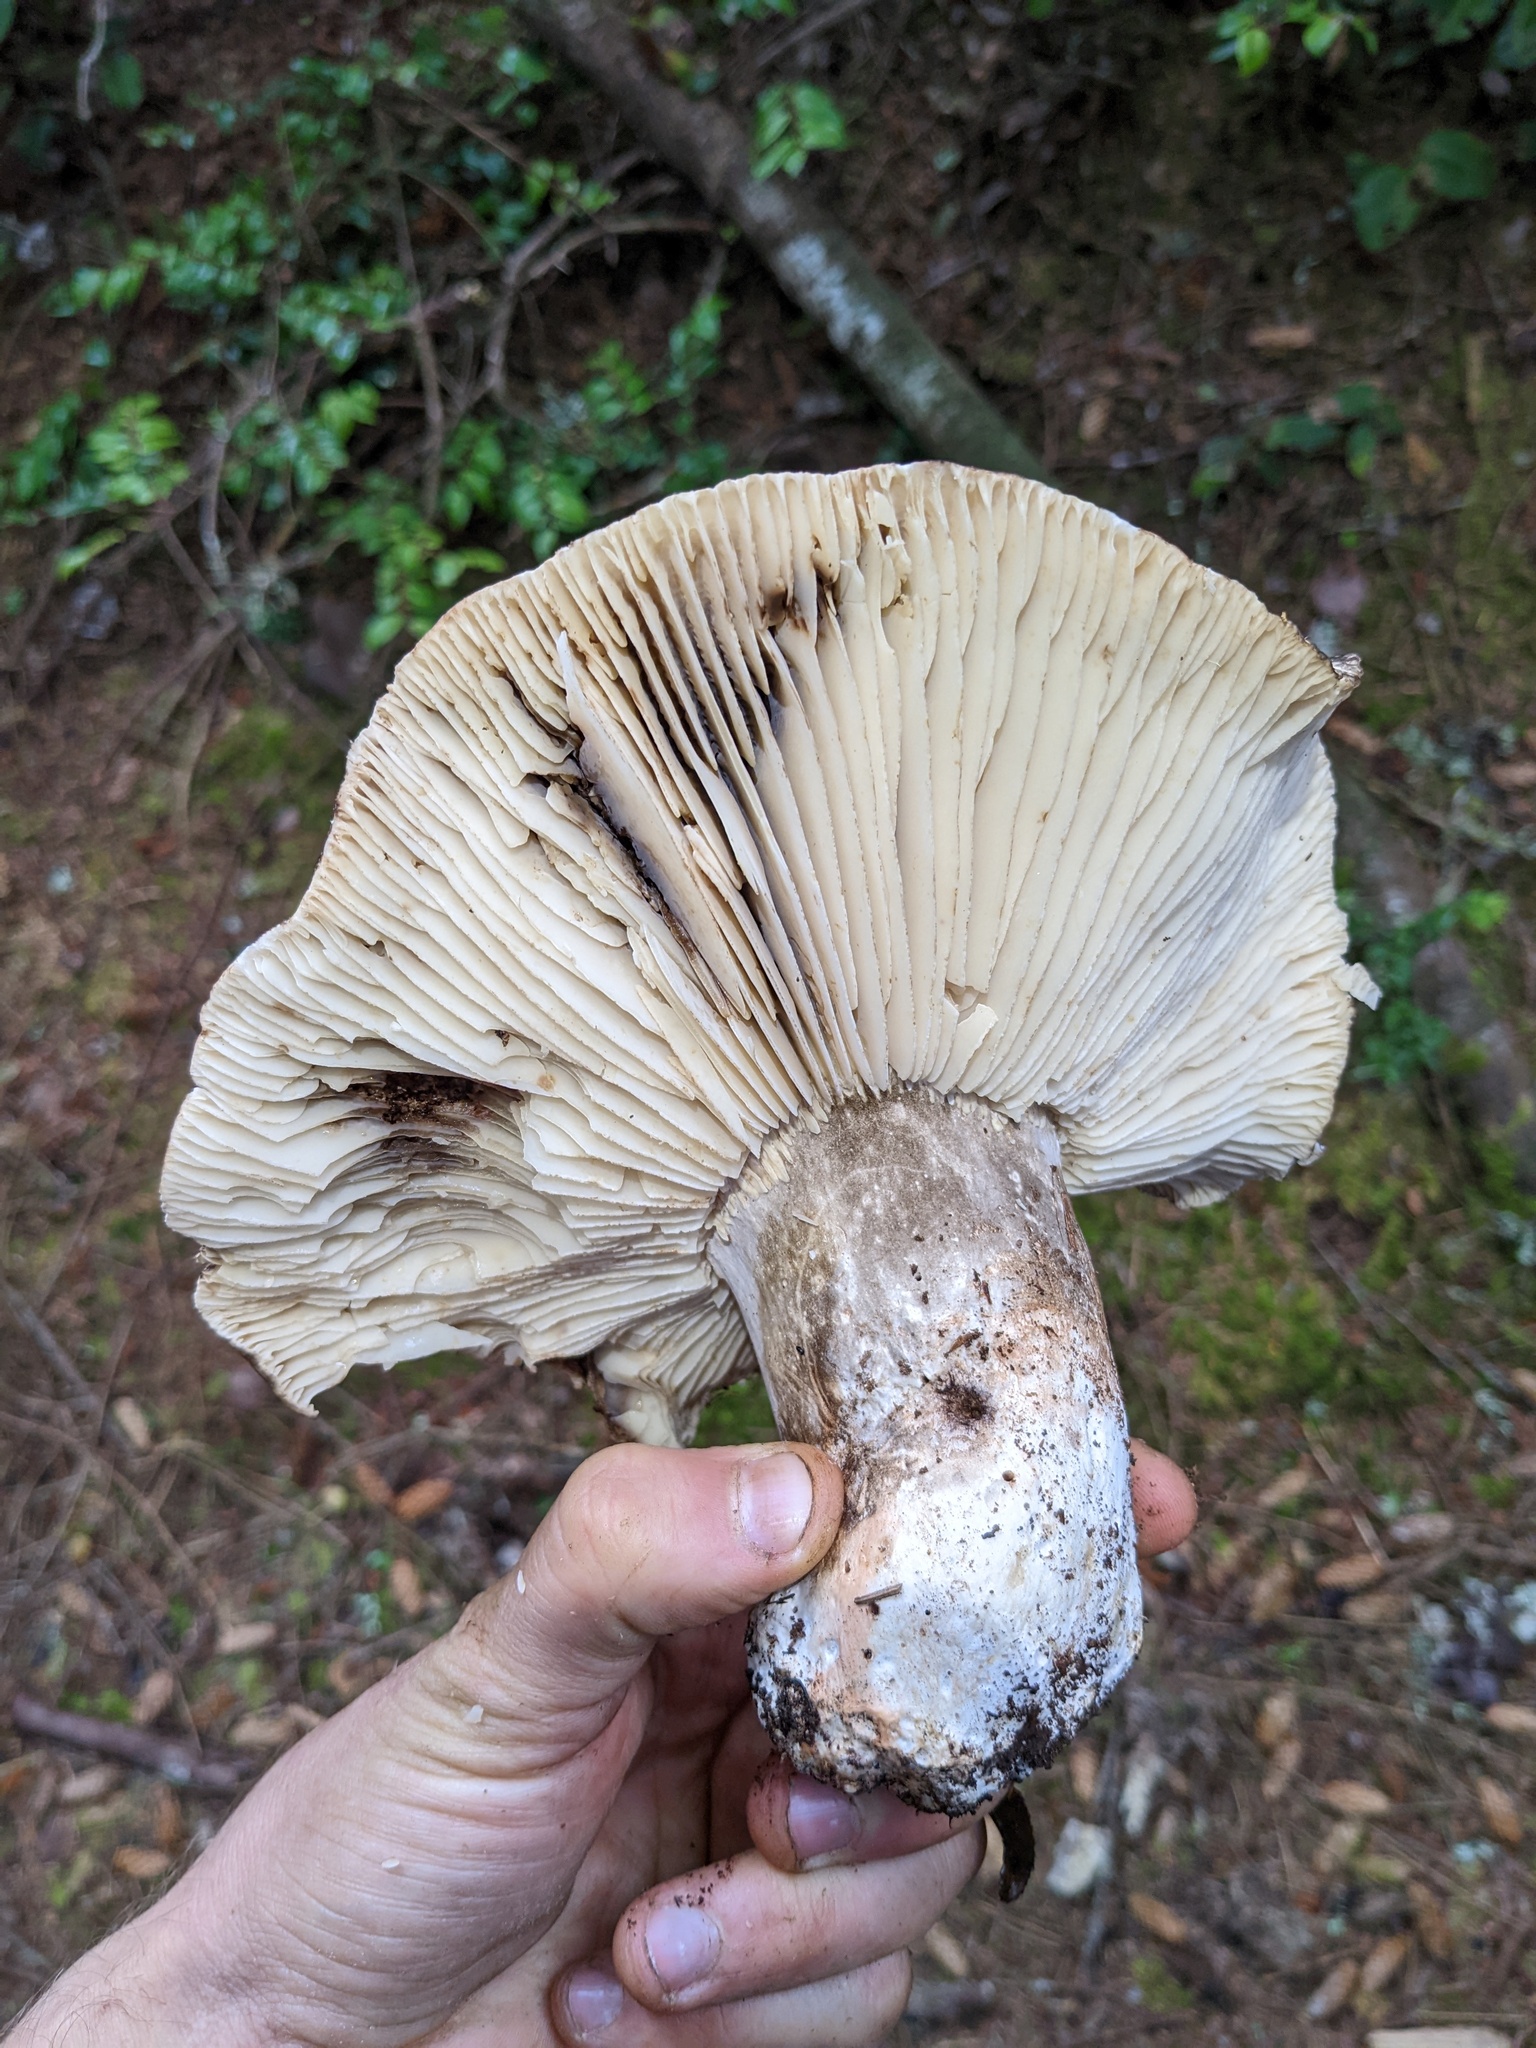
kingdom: Fungi
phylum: Basidiomycota
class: Agaricomycetes
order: Russulales
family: Russulaceae
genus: Russula
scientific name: Russula adusta
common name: Winecork brittlegill
